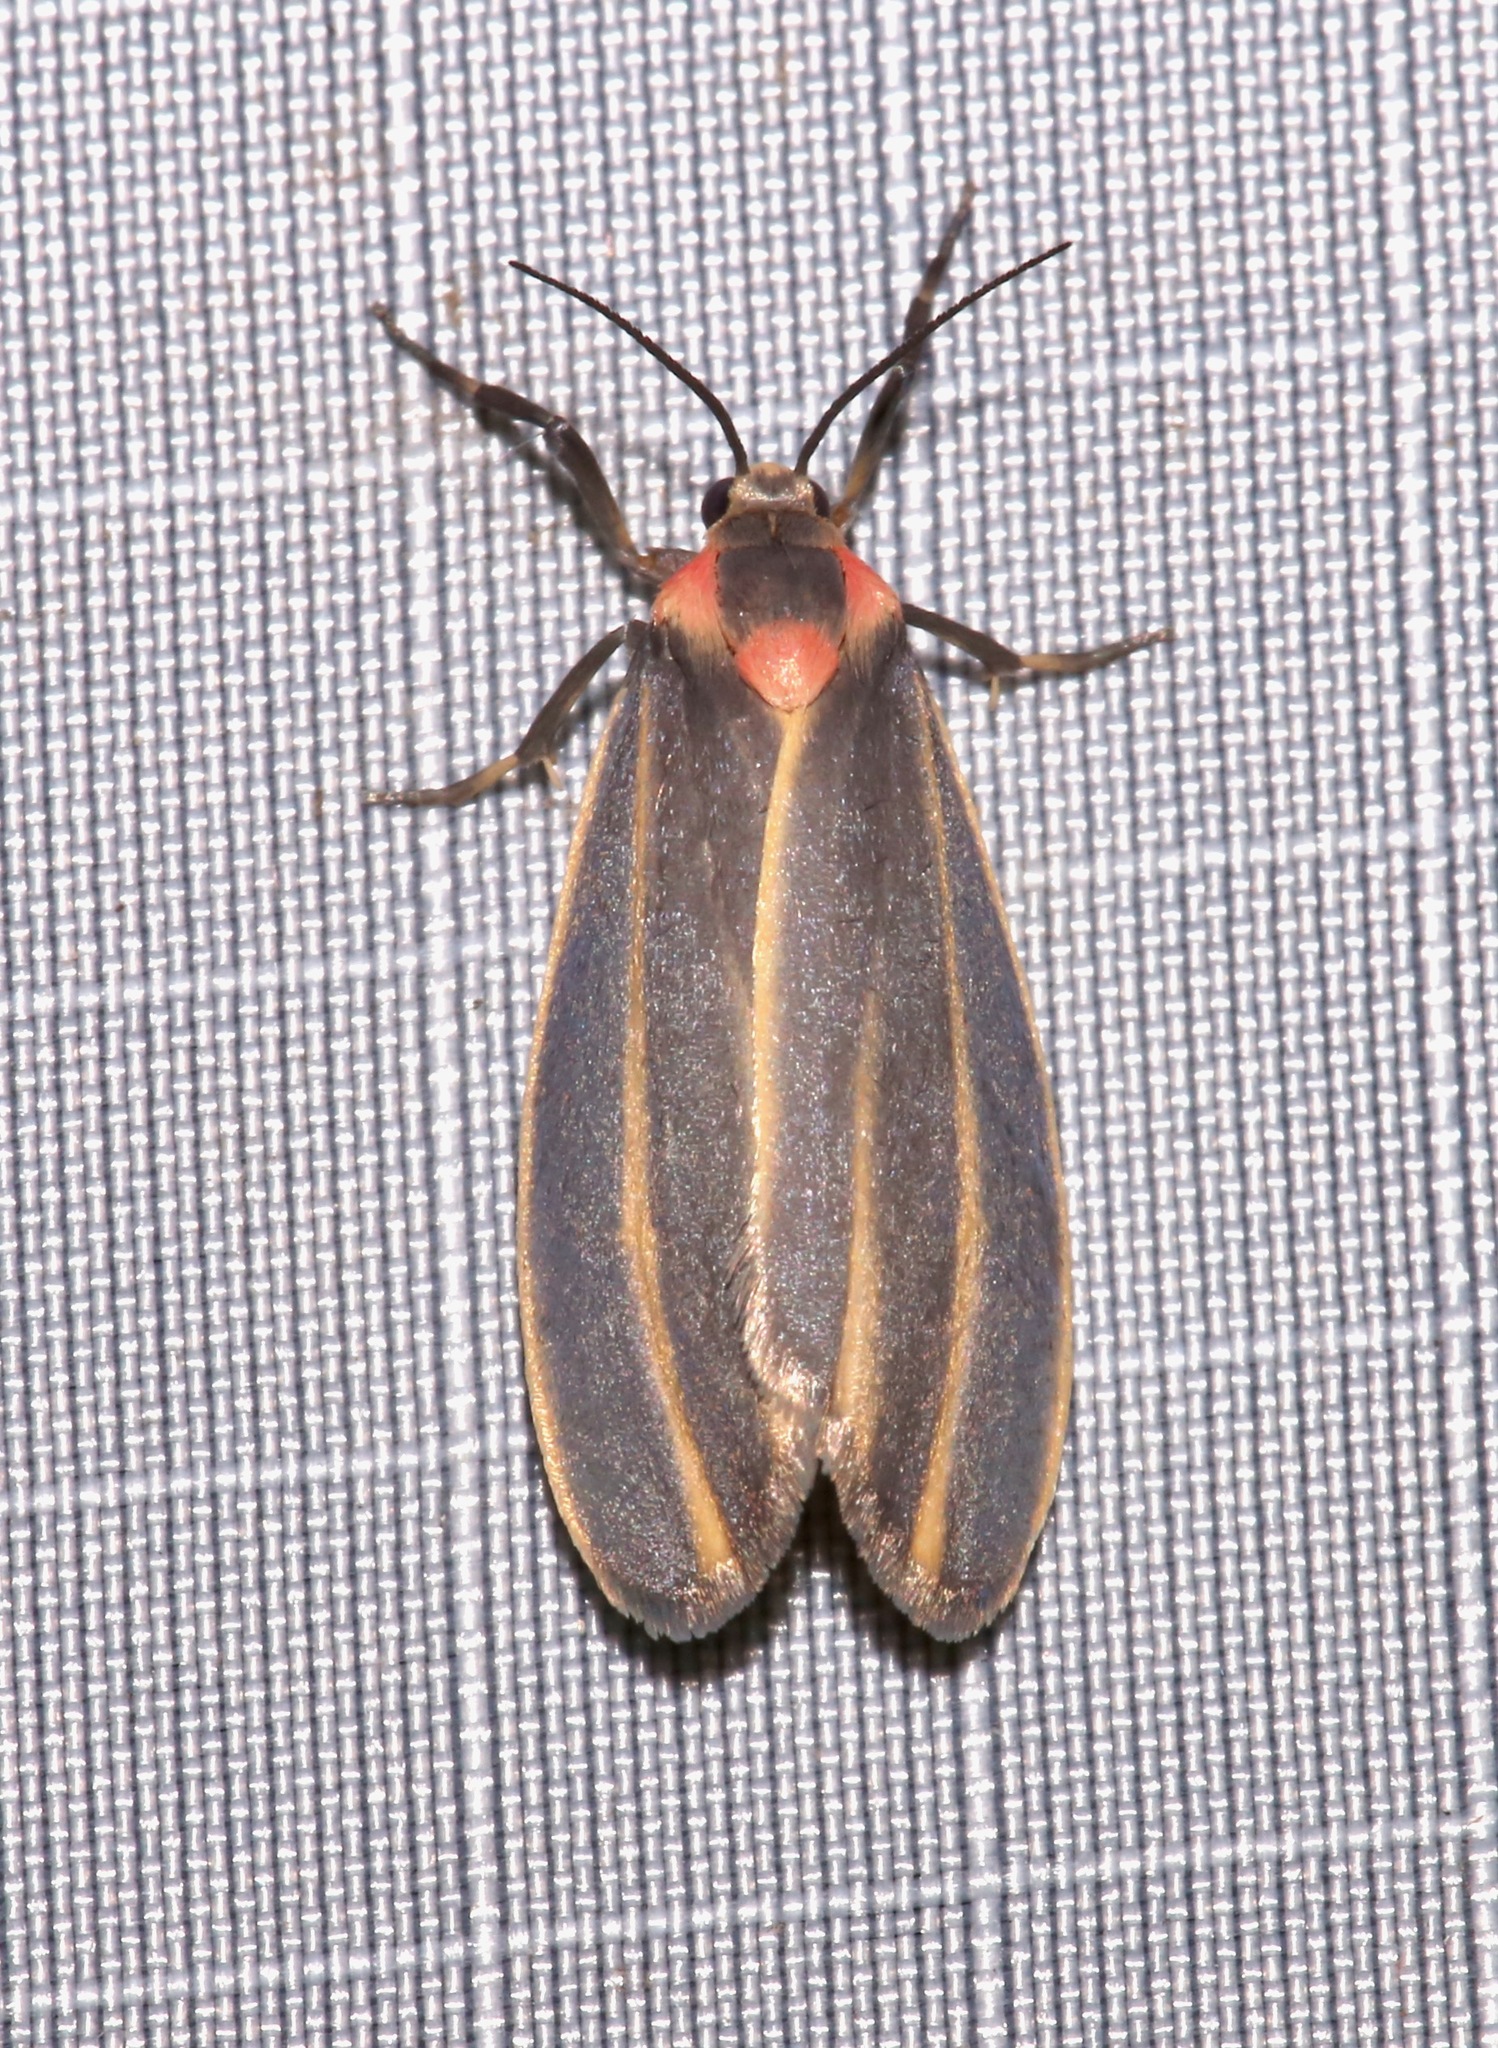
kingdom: Animalia
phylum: Arthropoda
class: Insecta
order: Lepidoptera
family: Erebidae
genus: Haematomis
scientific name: Haematomis uniformis
